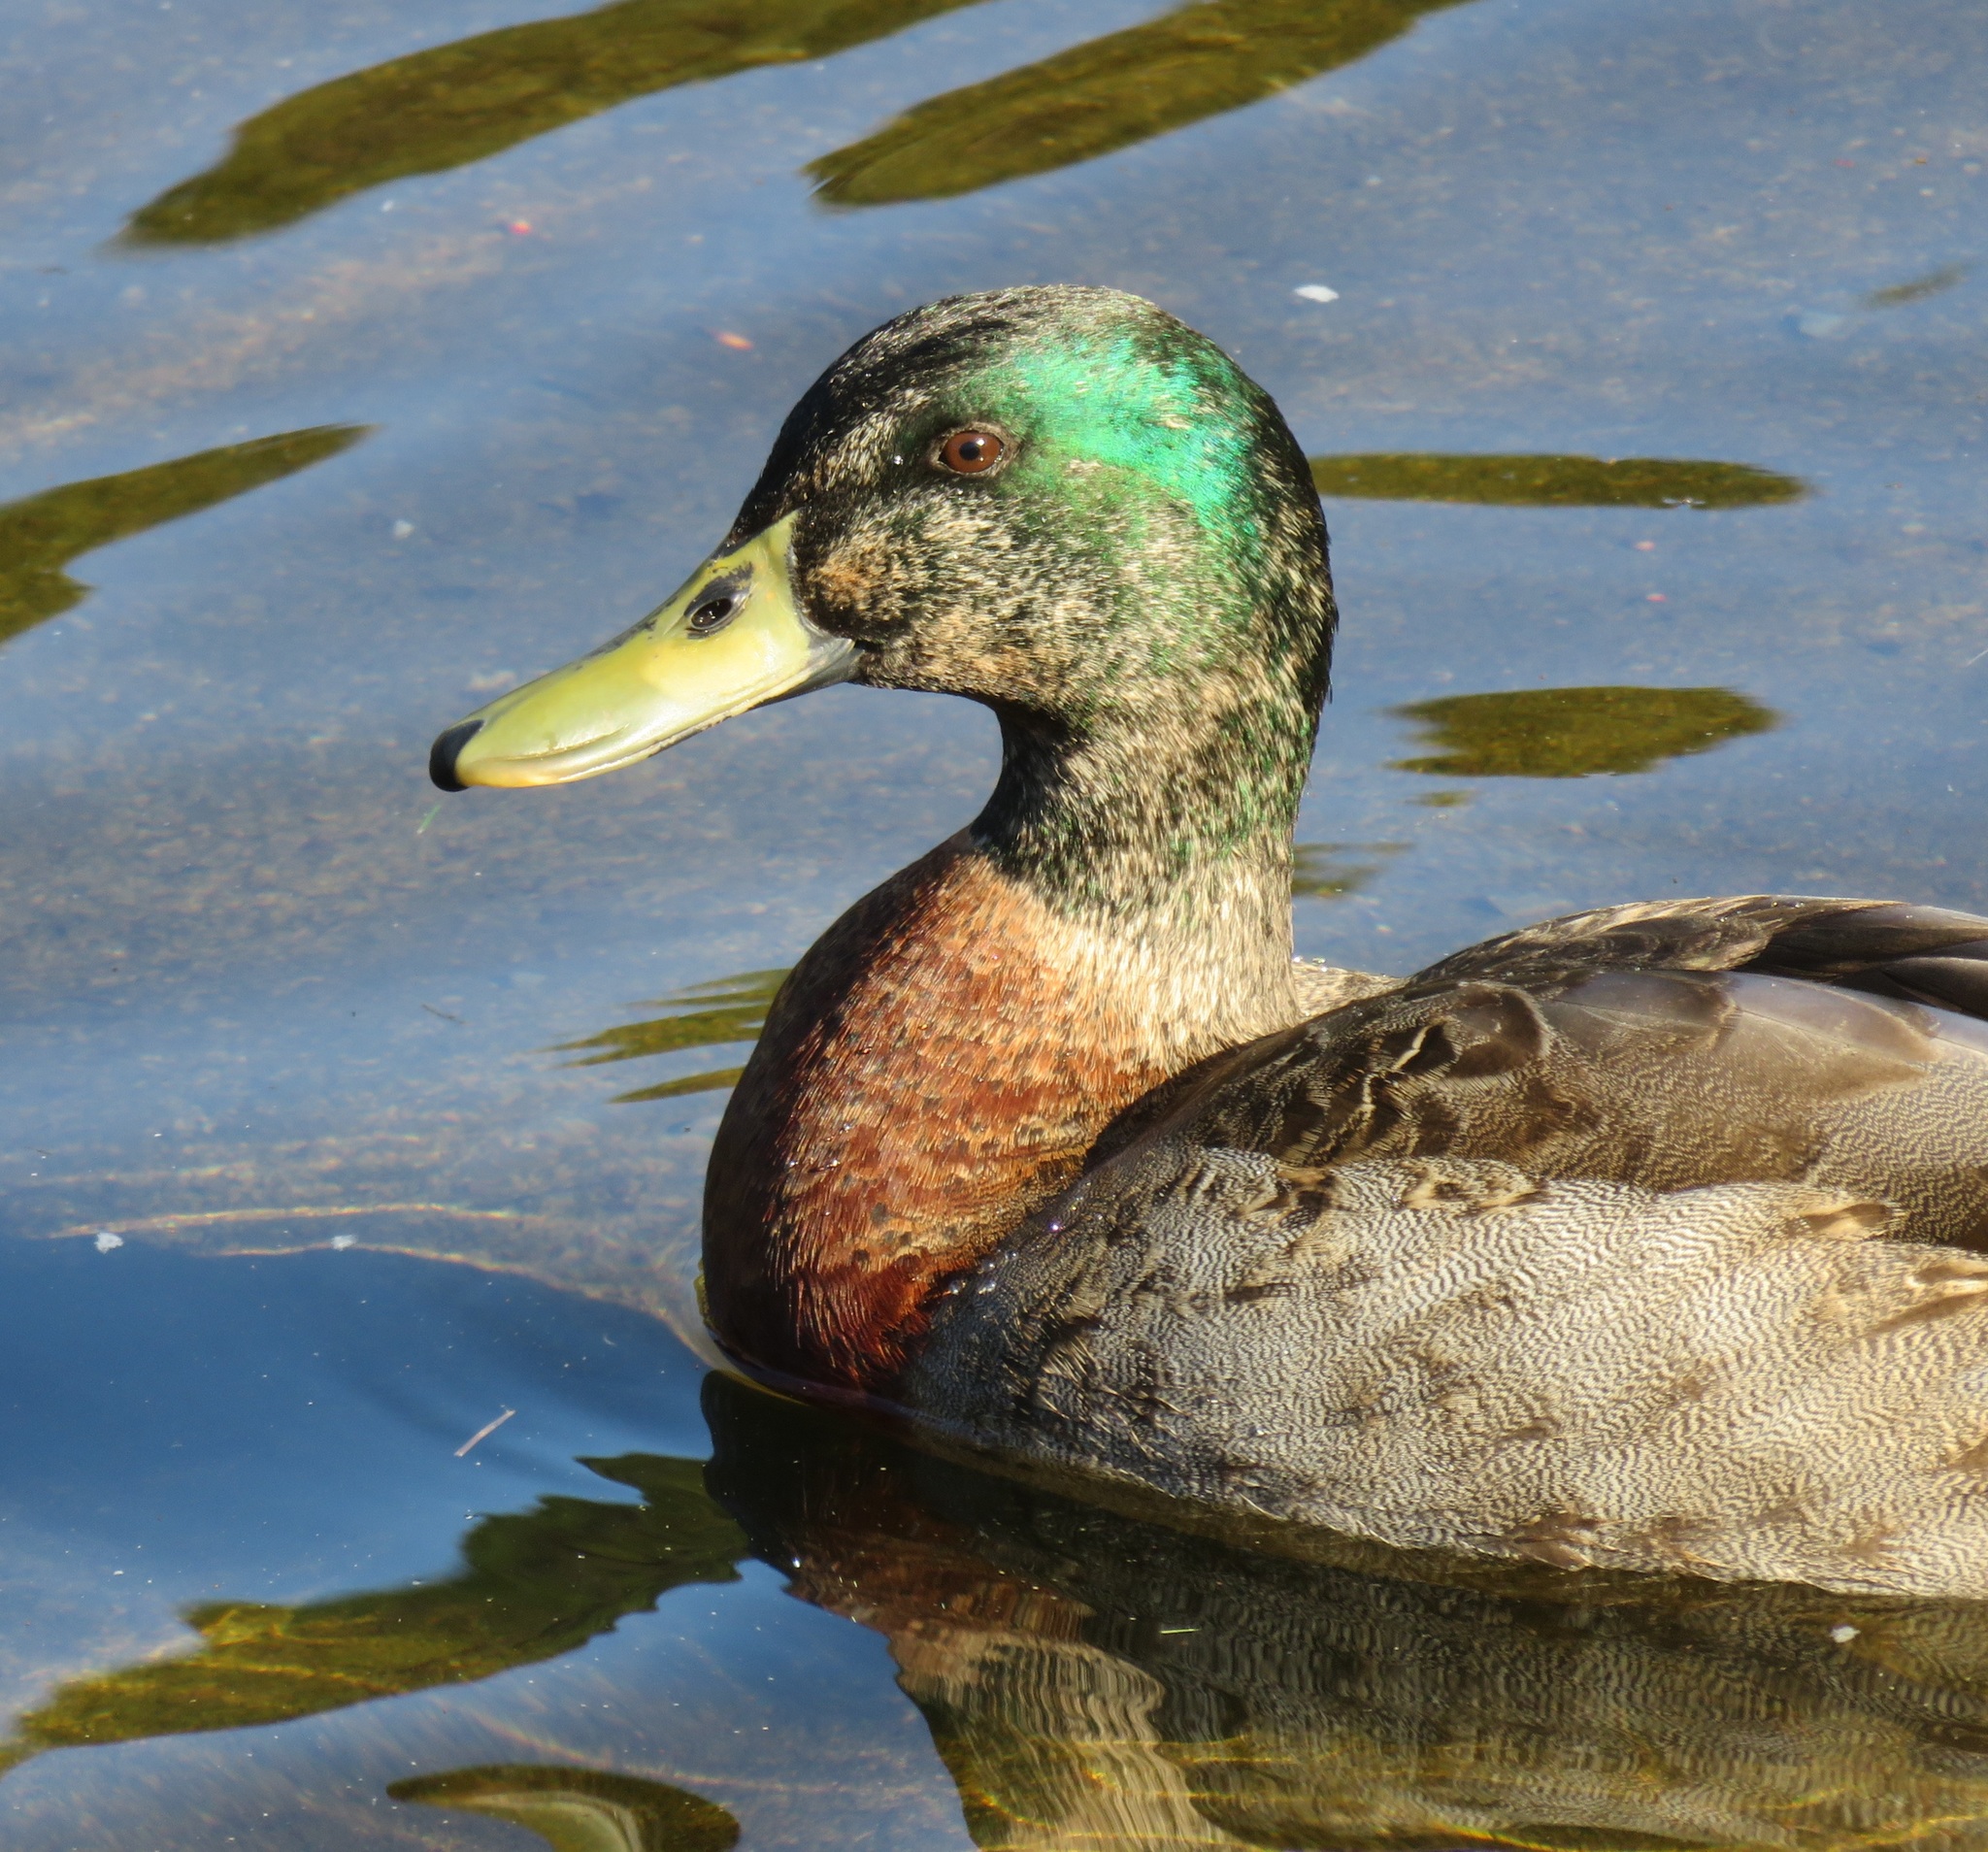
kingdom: Animalia
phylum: Chordata
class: Aves
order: Anseriformes
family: Anatidae
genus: Anas
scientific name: Anas platyrhynchos
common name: Mallard
